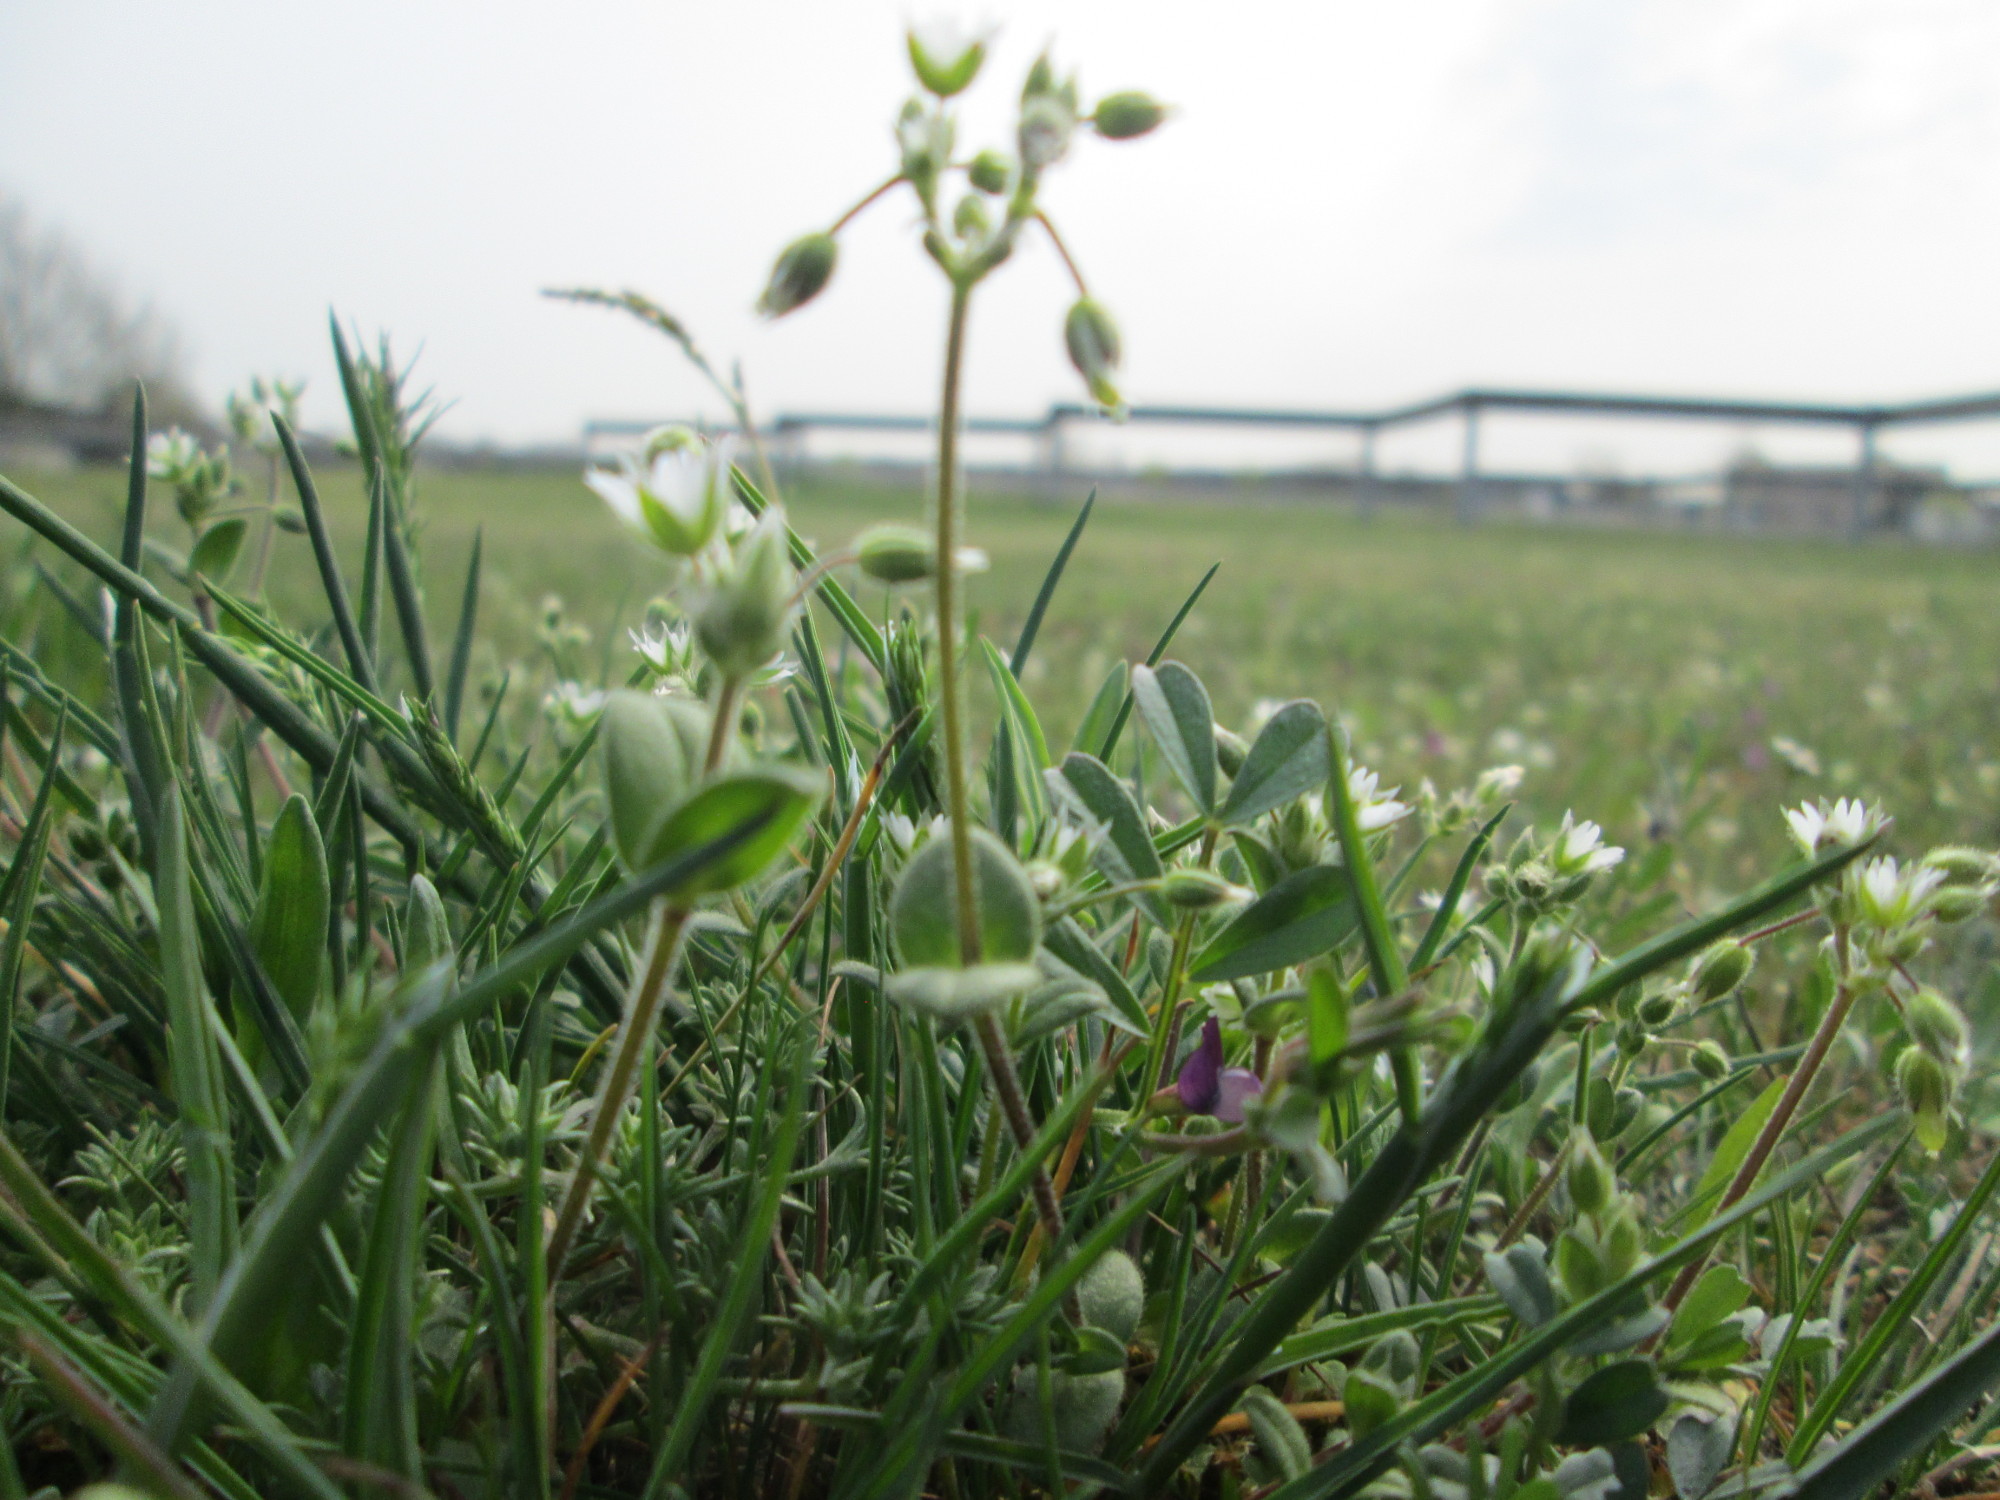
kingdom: Plantae
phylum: Tracheophyta
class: Magnoliopsida
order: Caryophyllales
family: Caryophyllaceae
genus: Cerastium
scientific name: Cerastium semidecandrum
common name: Little mouse-ear
